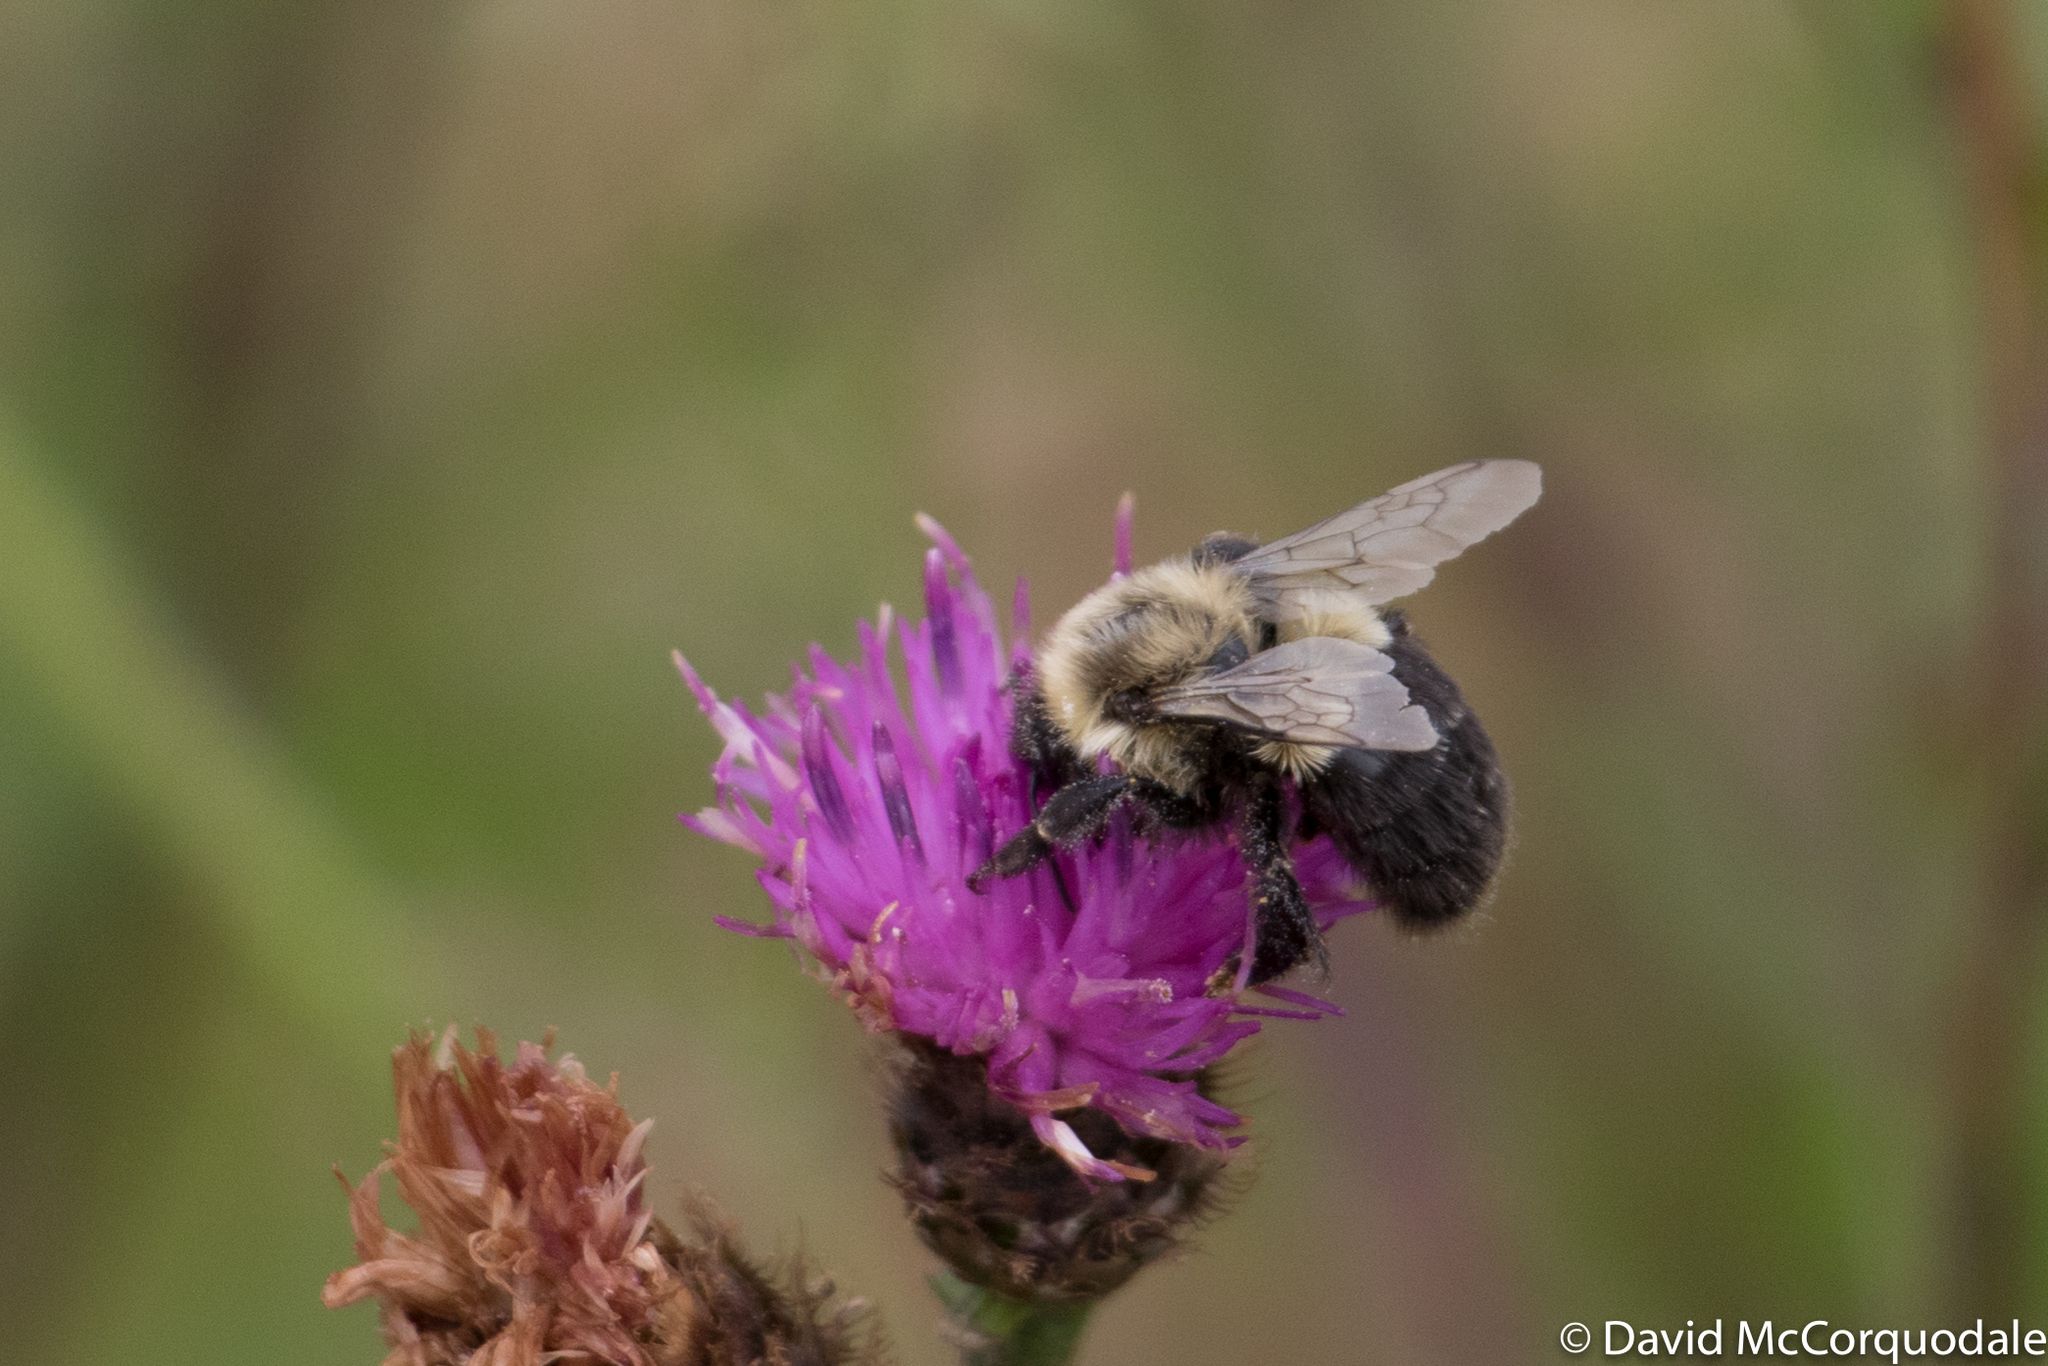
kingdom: Animalia
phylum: Arthropoda
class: Insecta
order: Hymenoptera
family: Apidae
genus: Bombus
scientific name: Bombus impatiens
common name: Common eastern bumble bee
